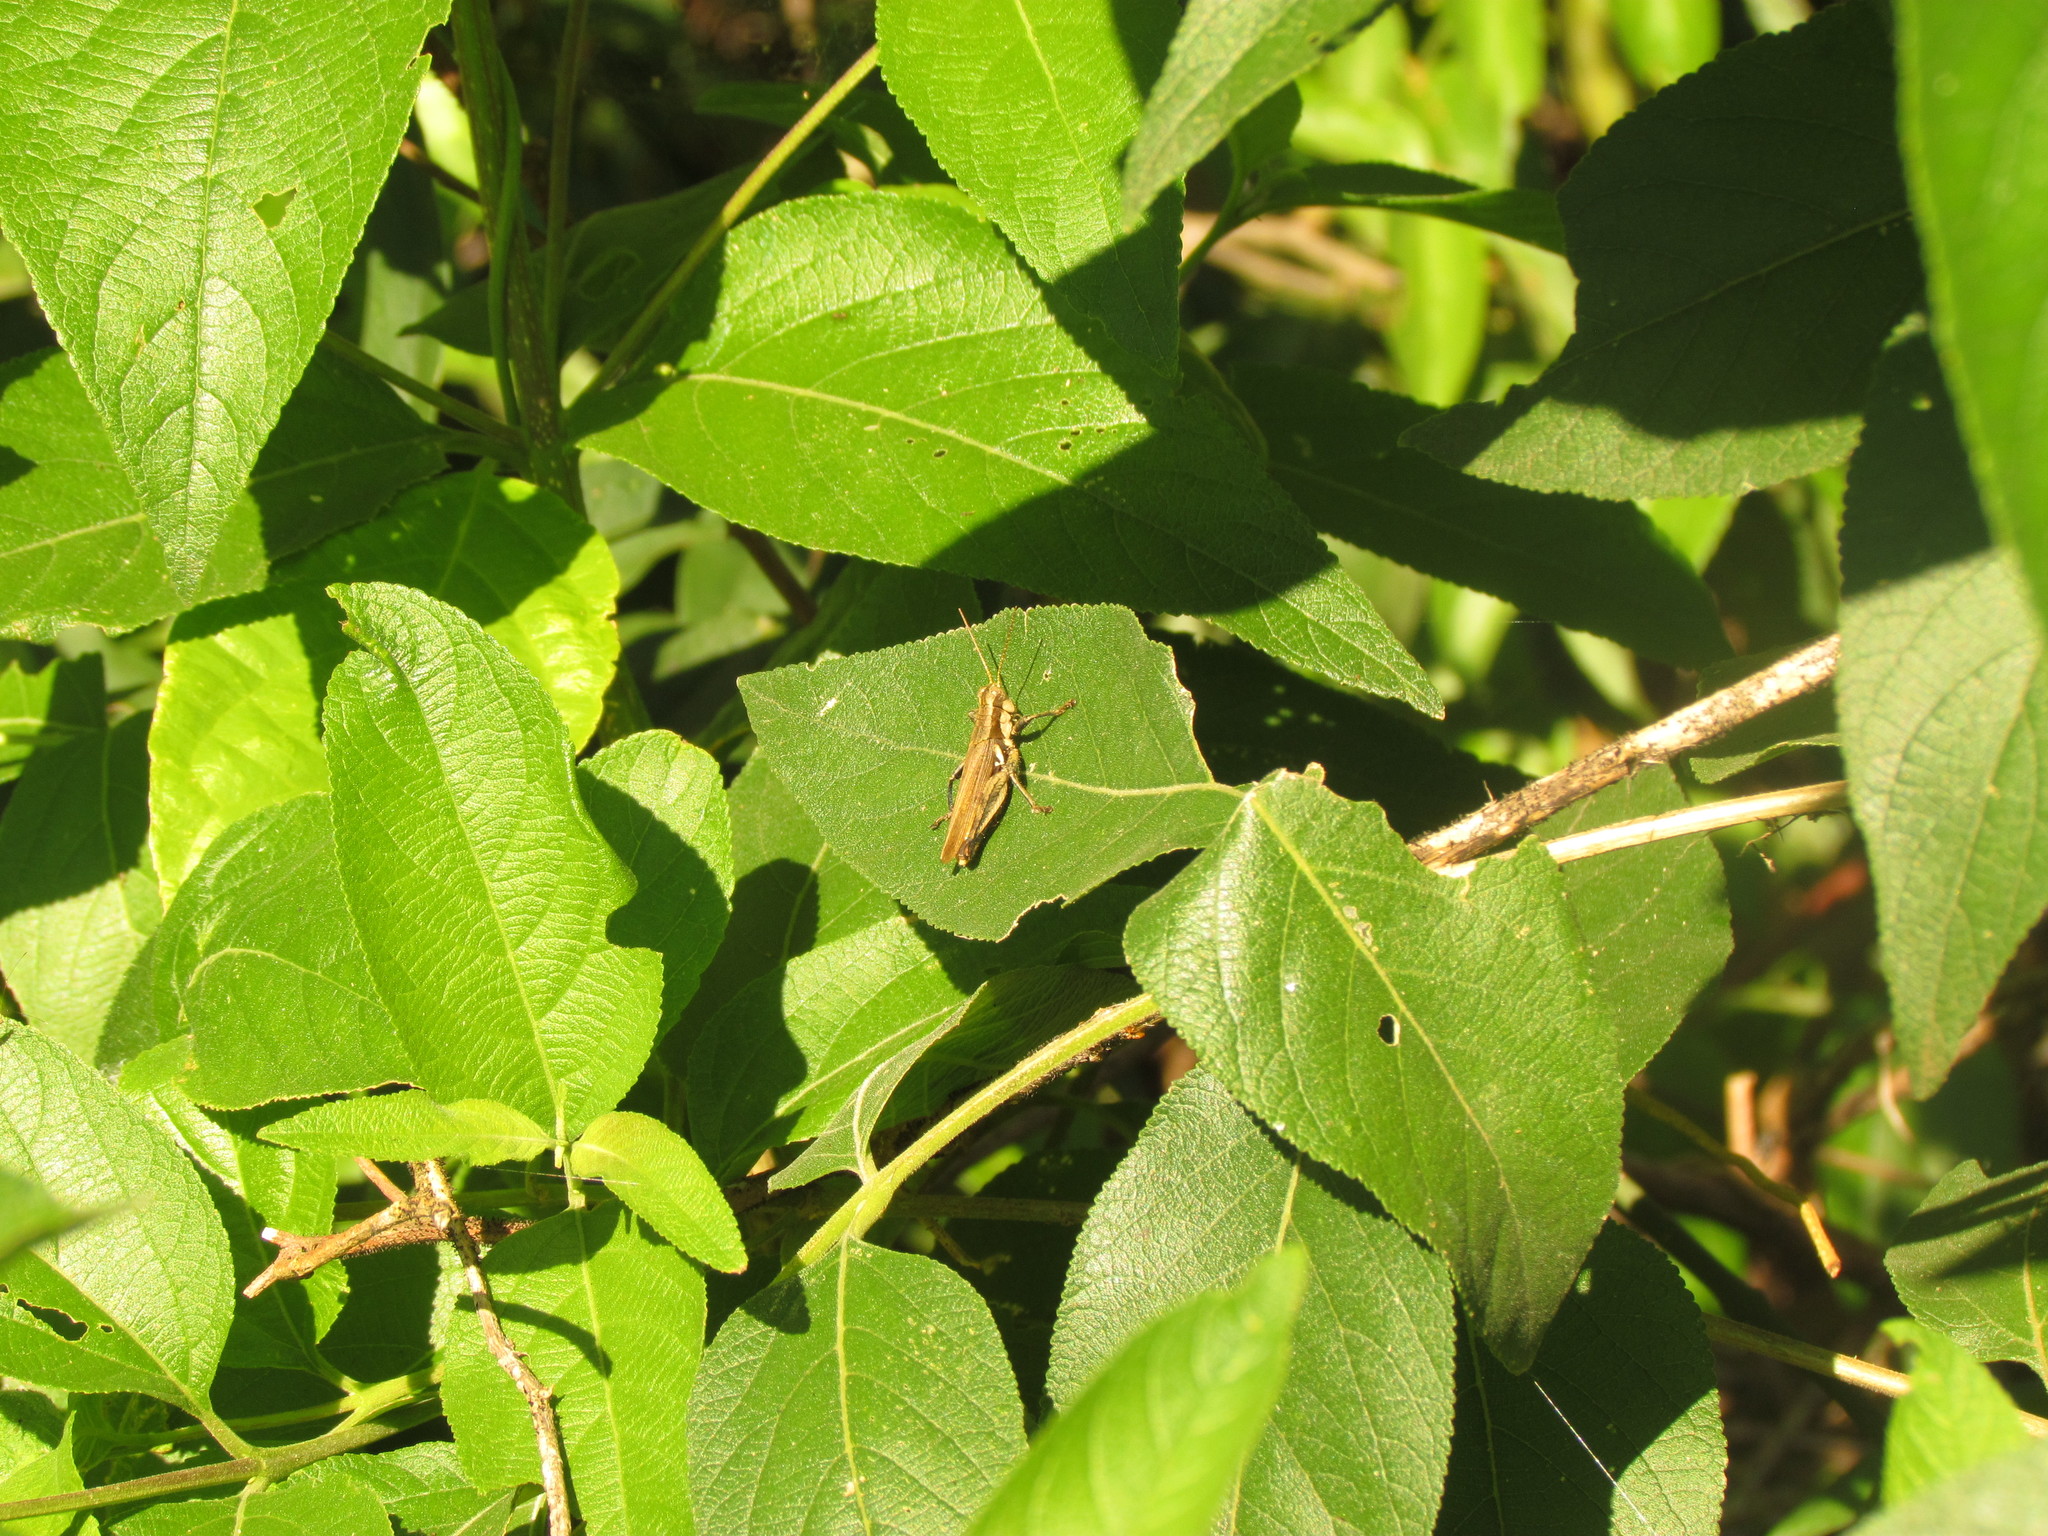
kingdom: Animalia
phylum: Arthropoda
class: Insecta
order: Orthoptera
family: Acrididae
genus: Ronderosia
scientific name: Ronderosia bergii
